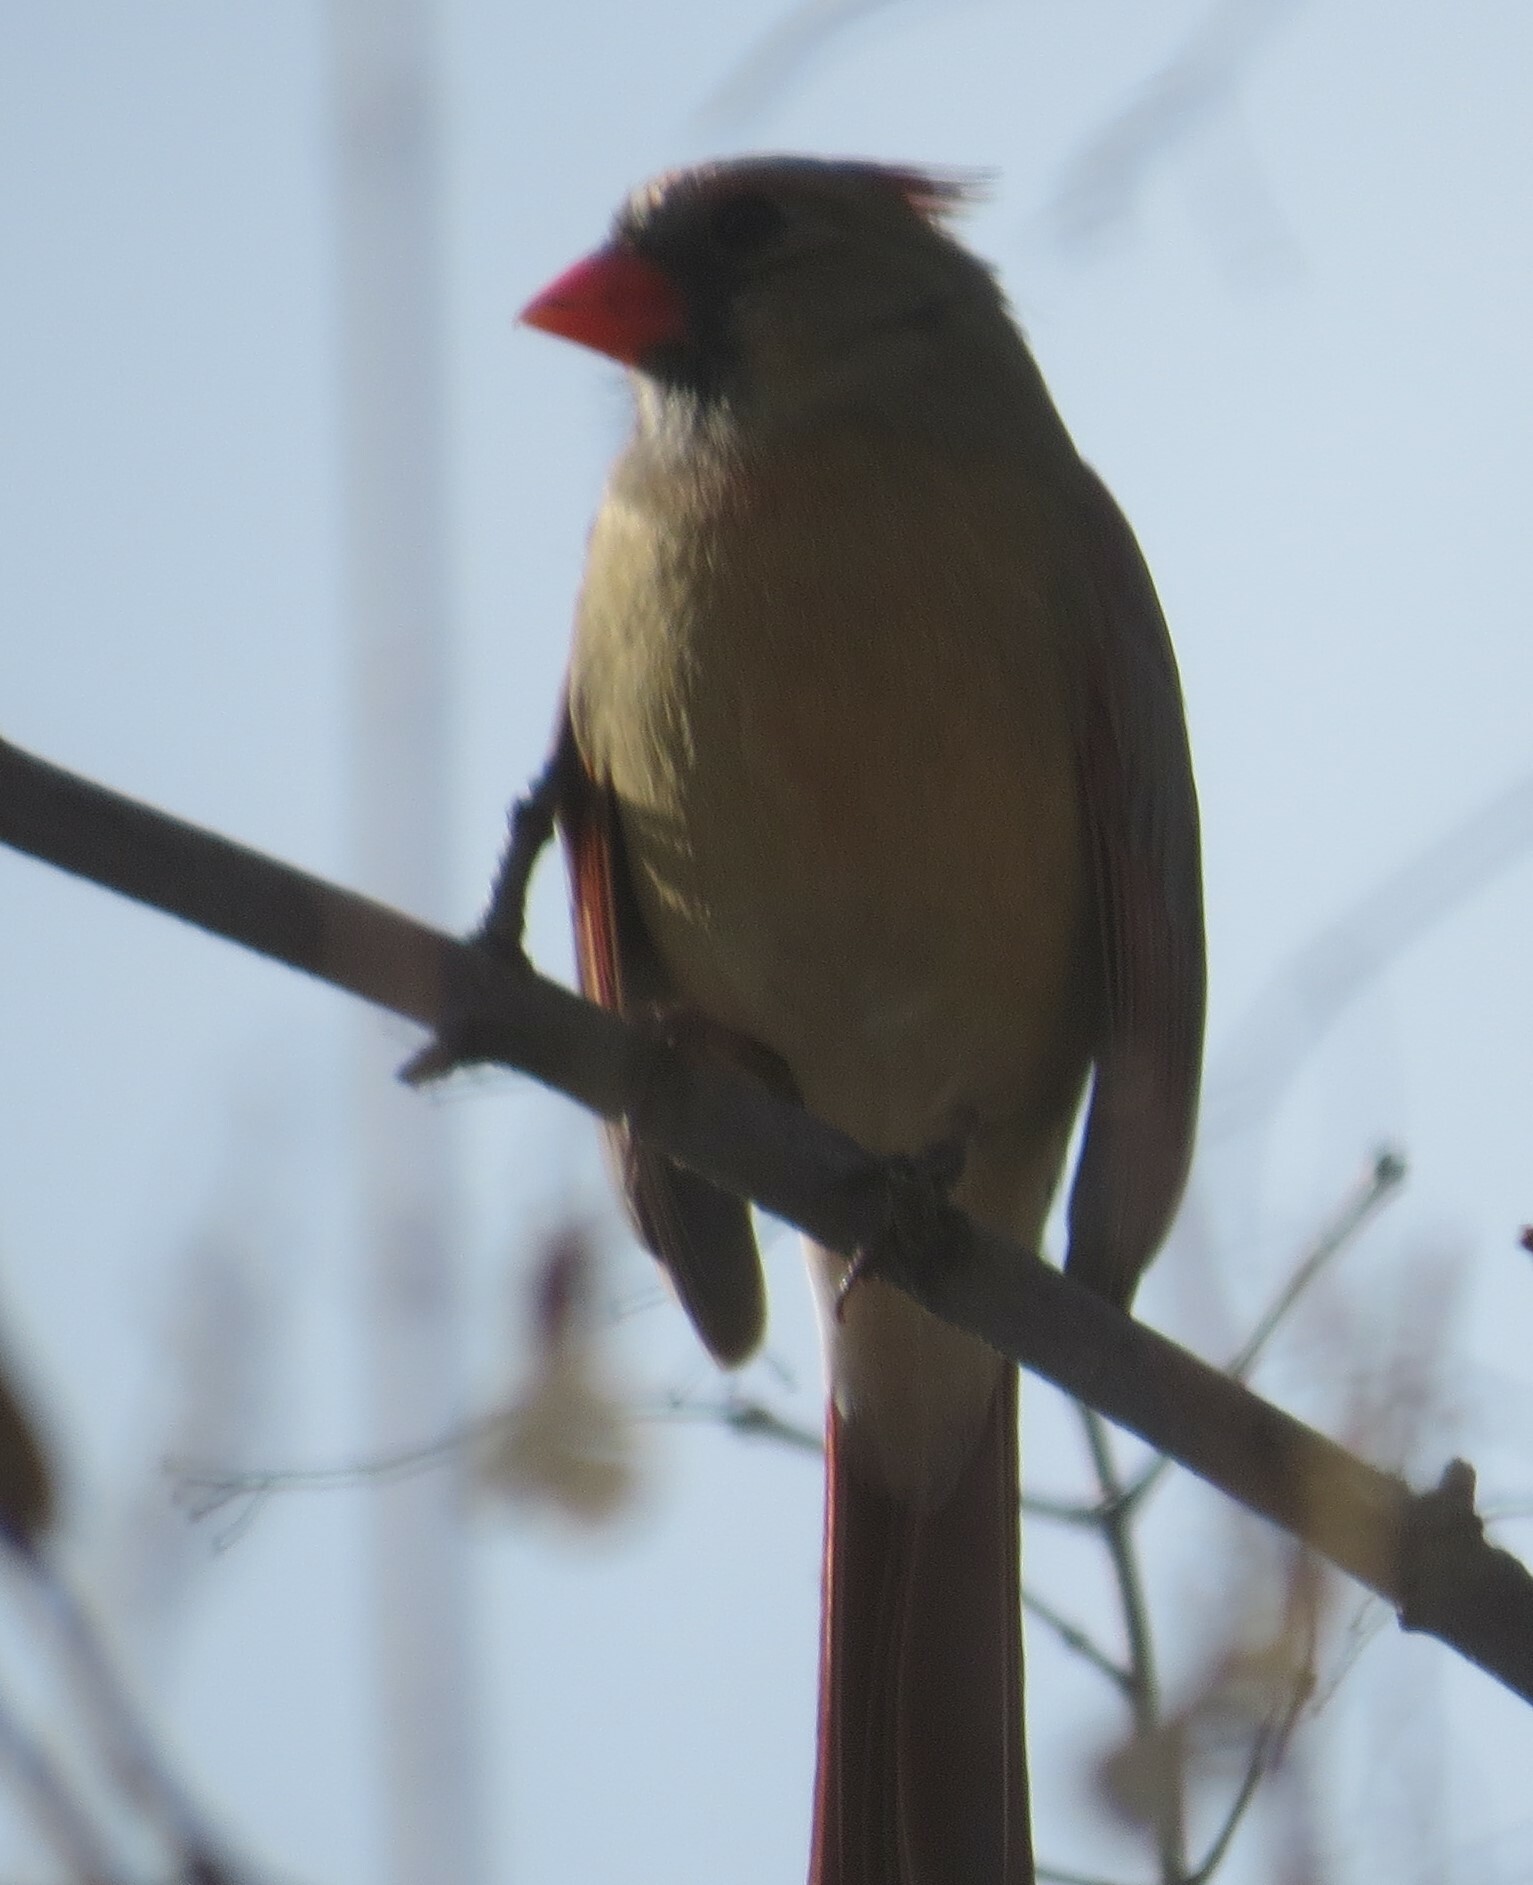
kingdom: Animalia
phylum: Chordata
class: Aves
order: Passeriformes
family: Cardinalidae
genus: Cardinalis
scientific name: Cardinalis cardinalis
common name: Northern cardinal
